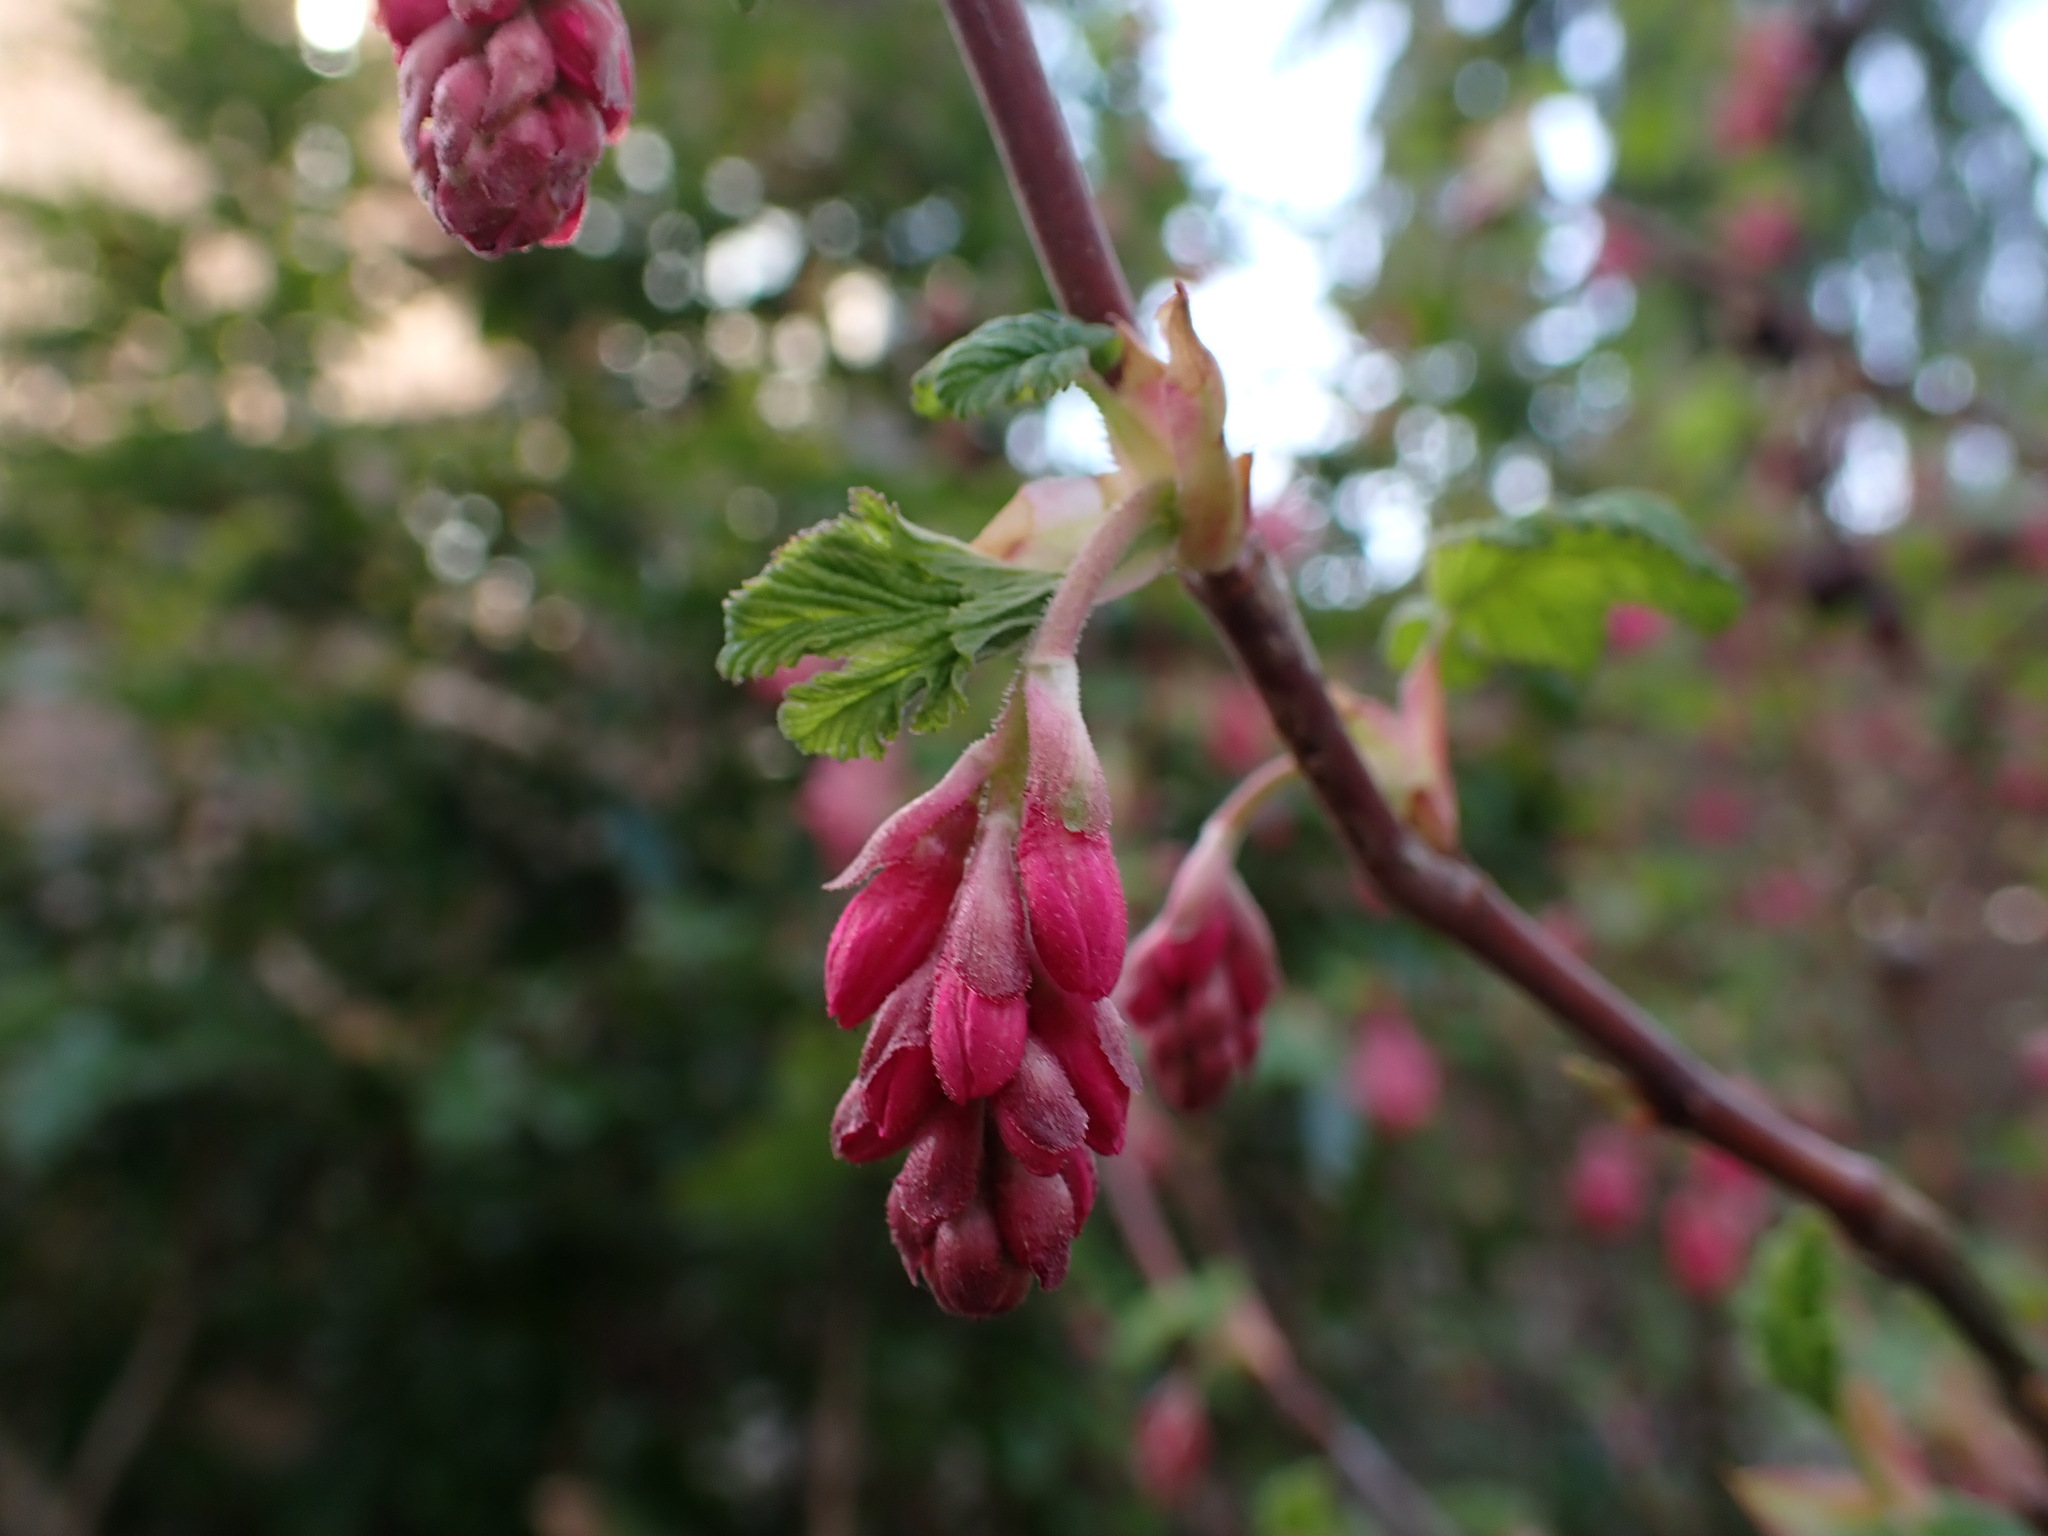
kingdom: Plantae
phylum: Tracheophyta
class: Magnoliopsida
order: Saxifragales
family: Grossulariaceae
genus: Ribes
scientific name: Ribes sanguineum
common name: Flowering currant
